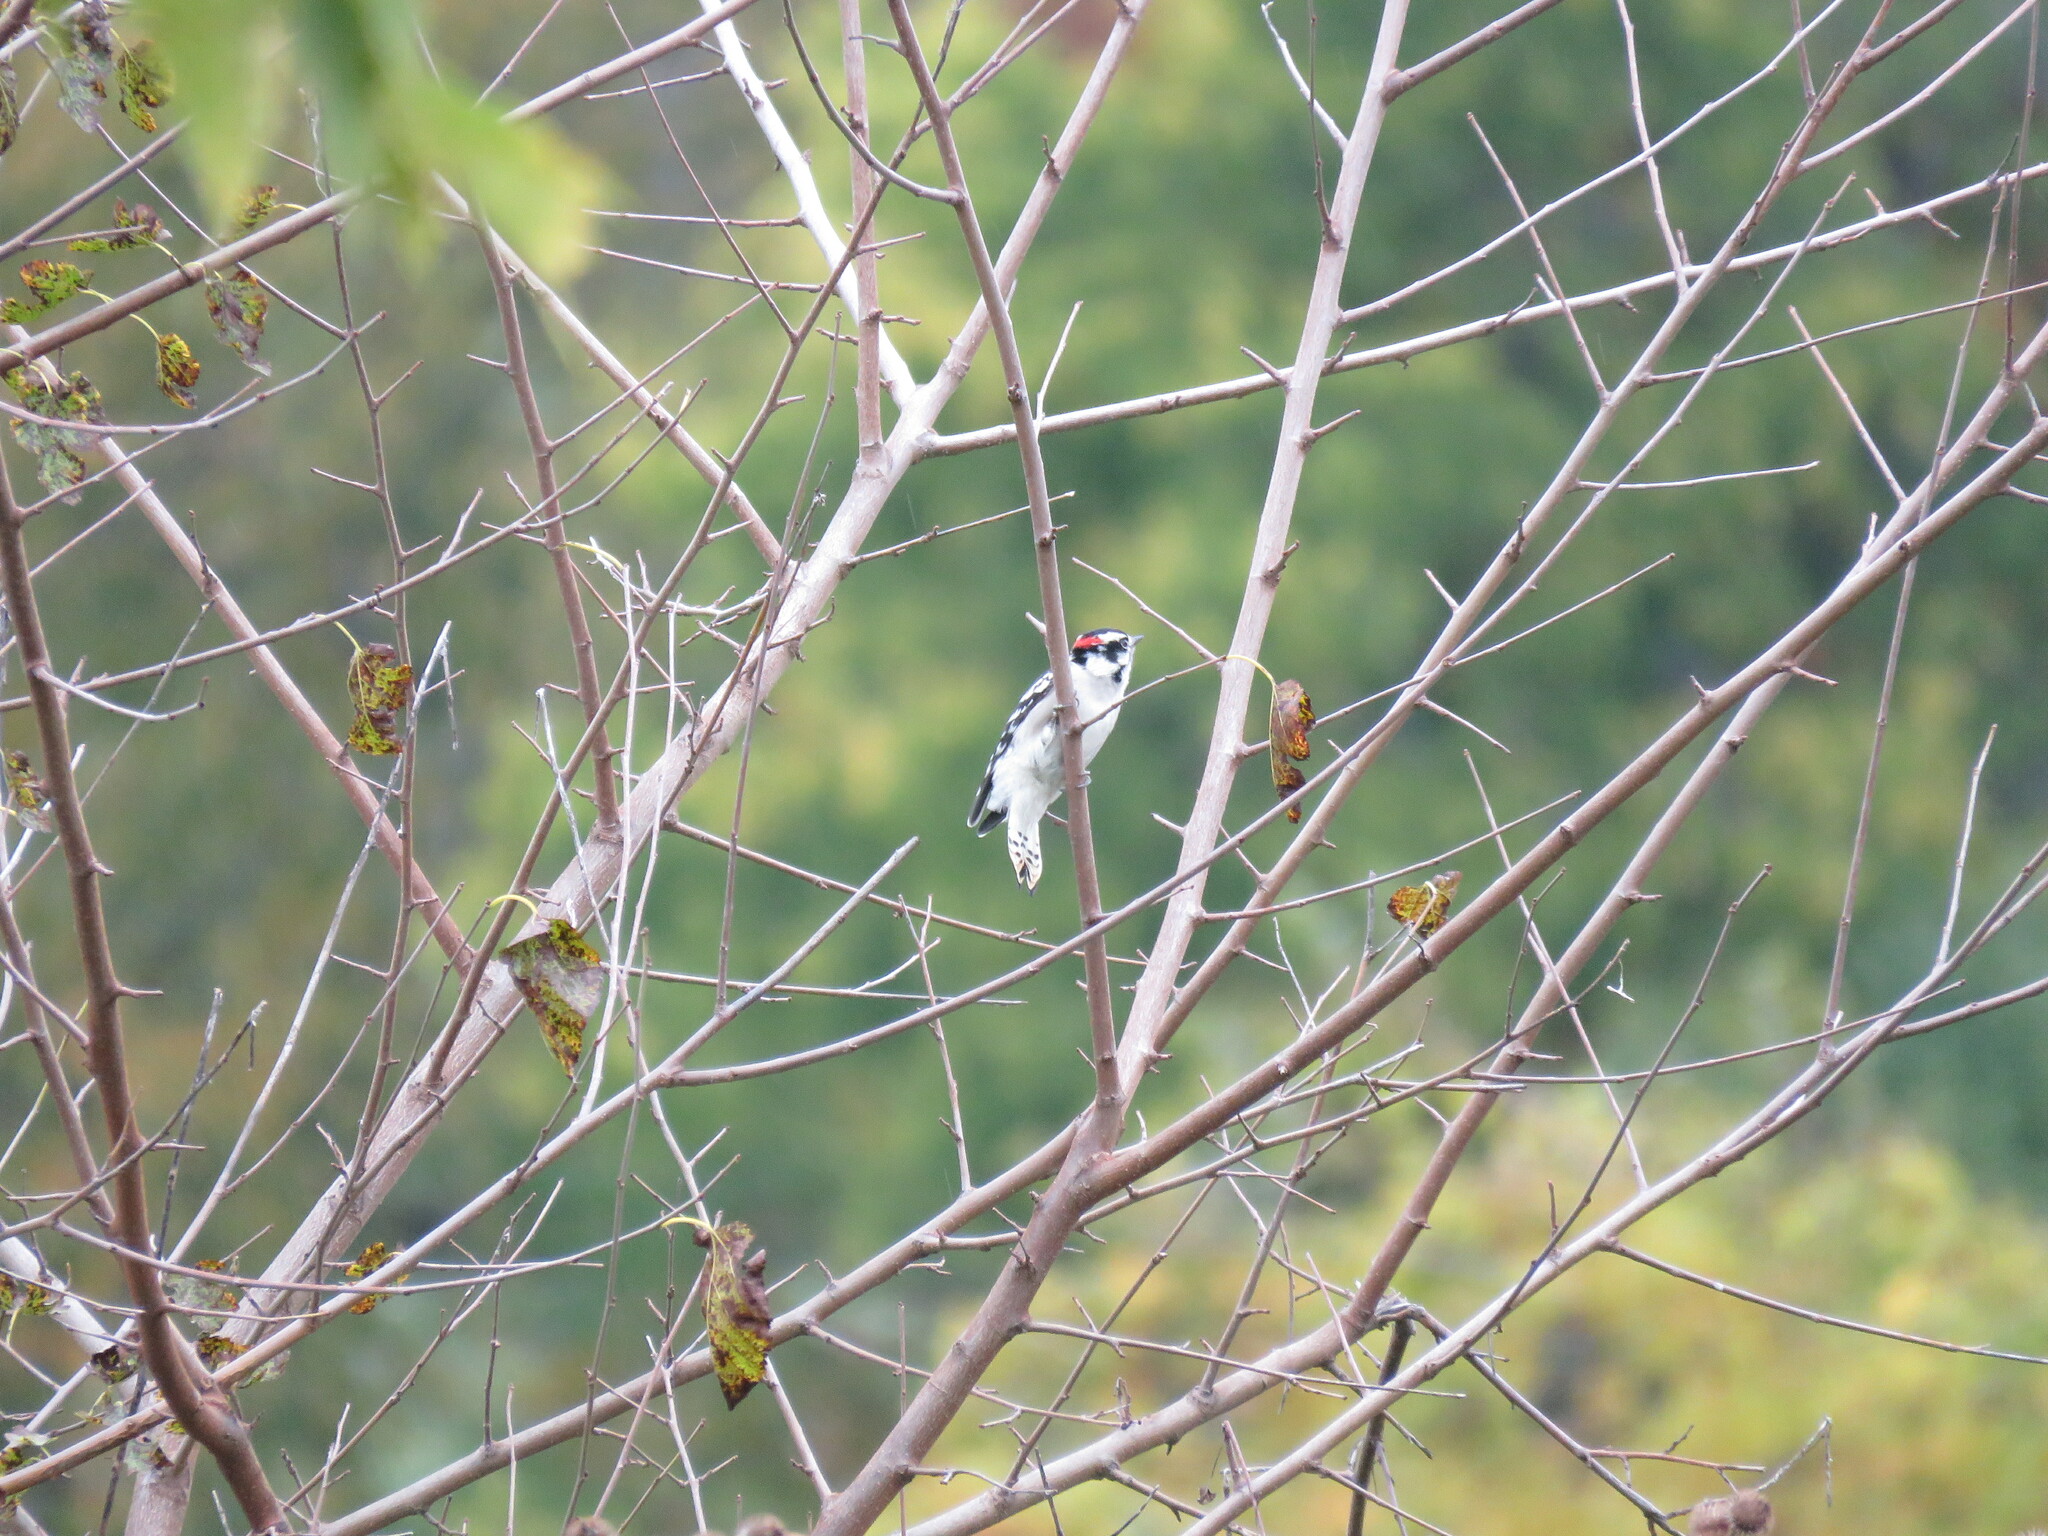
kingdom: Animalia
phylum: Chordata
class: Aves
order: Piciformes
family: Picidae
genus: Dryobates
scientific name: Dryobates pubescens
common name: Downy woodpecker
